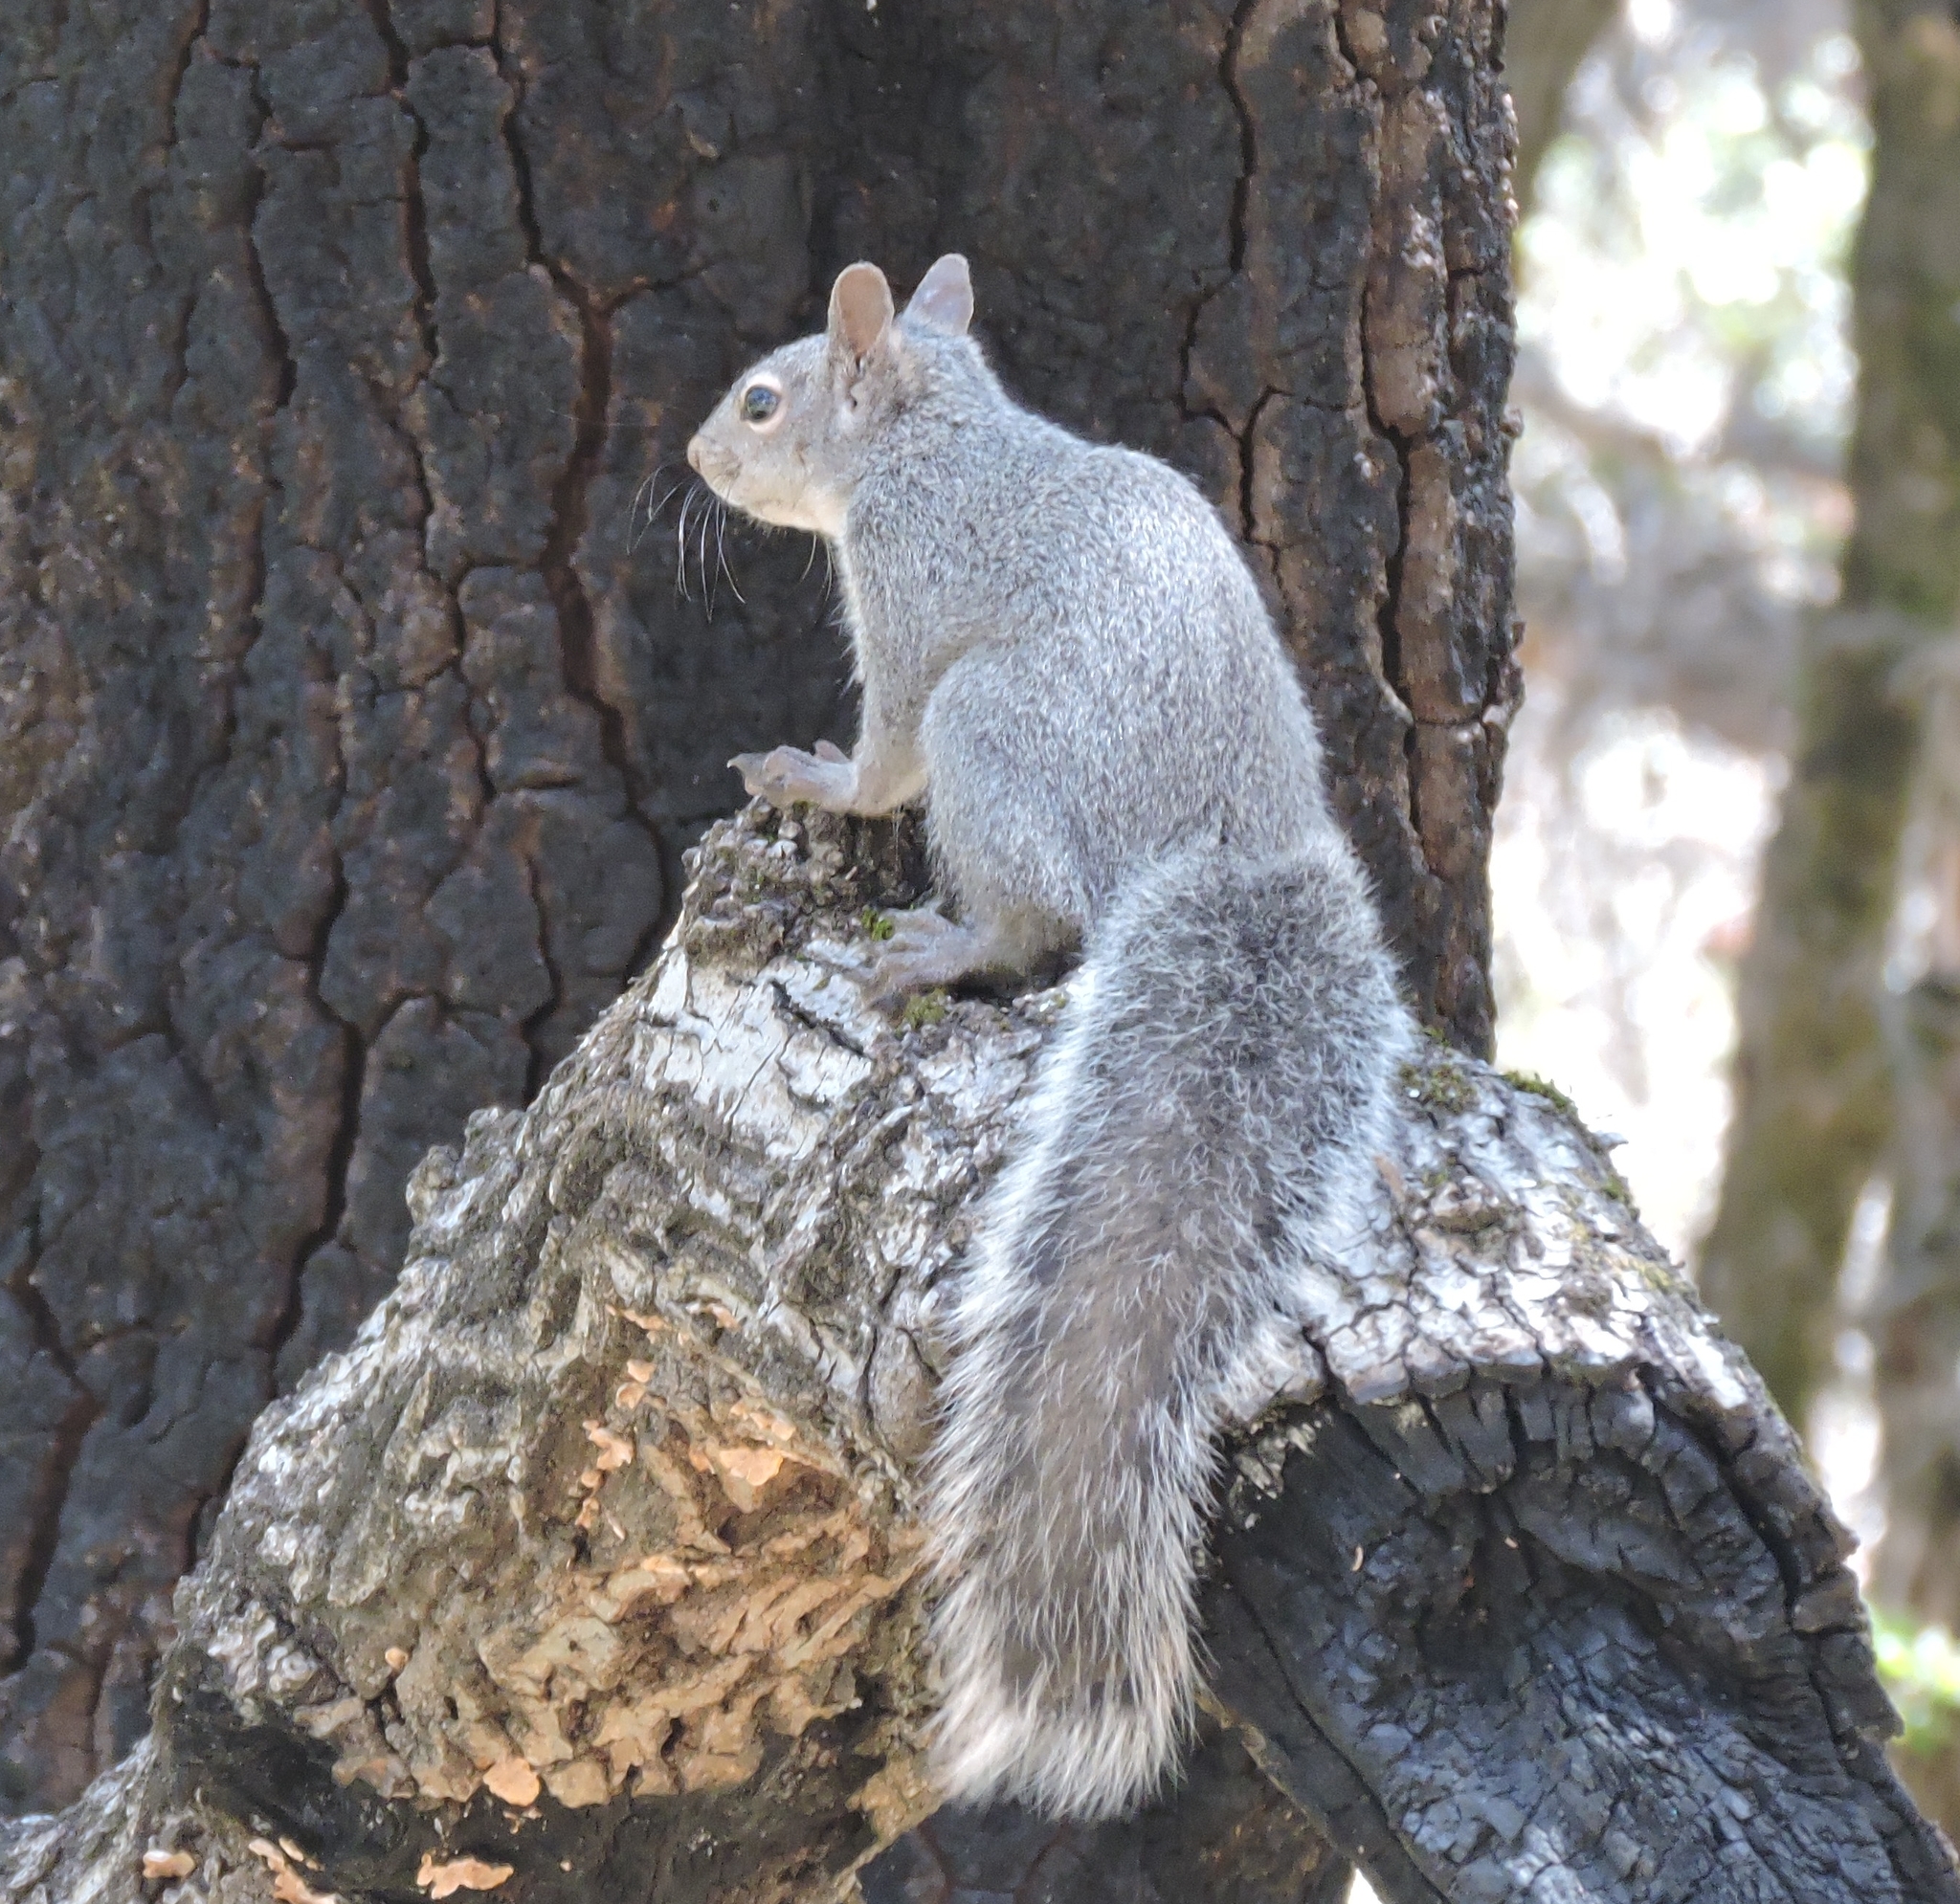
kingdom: Animalia
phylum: Chordata
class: Mammalia
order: Rodentia
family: Sciuridae
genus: Sciurus
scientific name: Sciurus griseus
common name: Western gray squirrel
